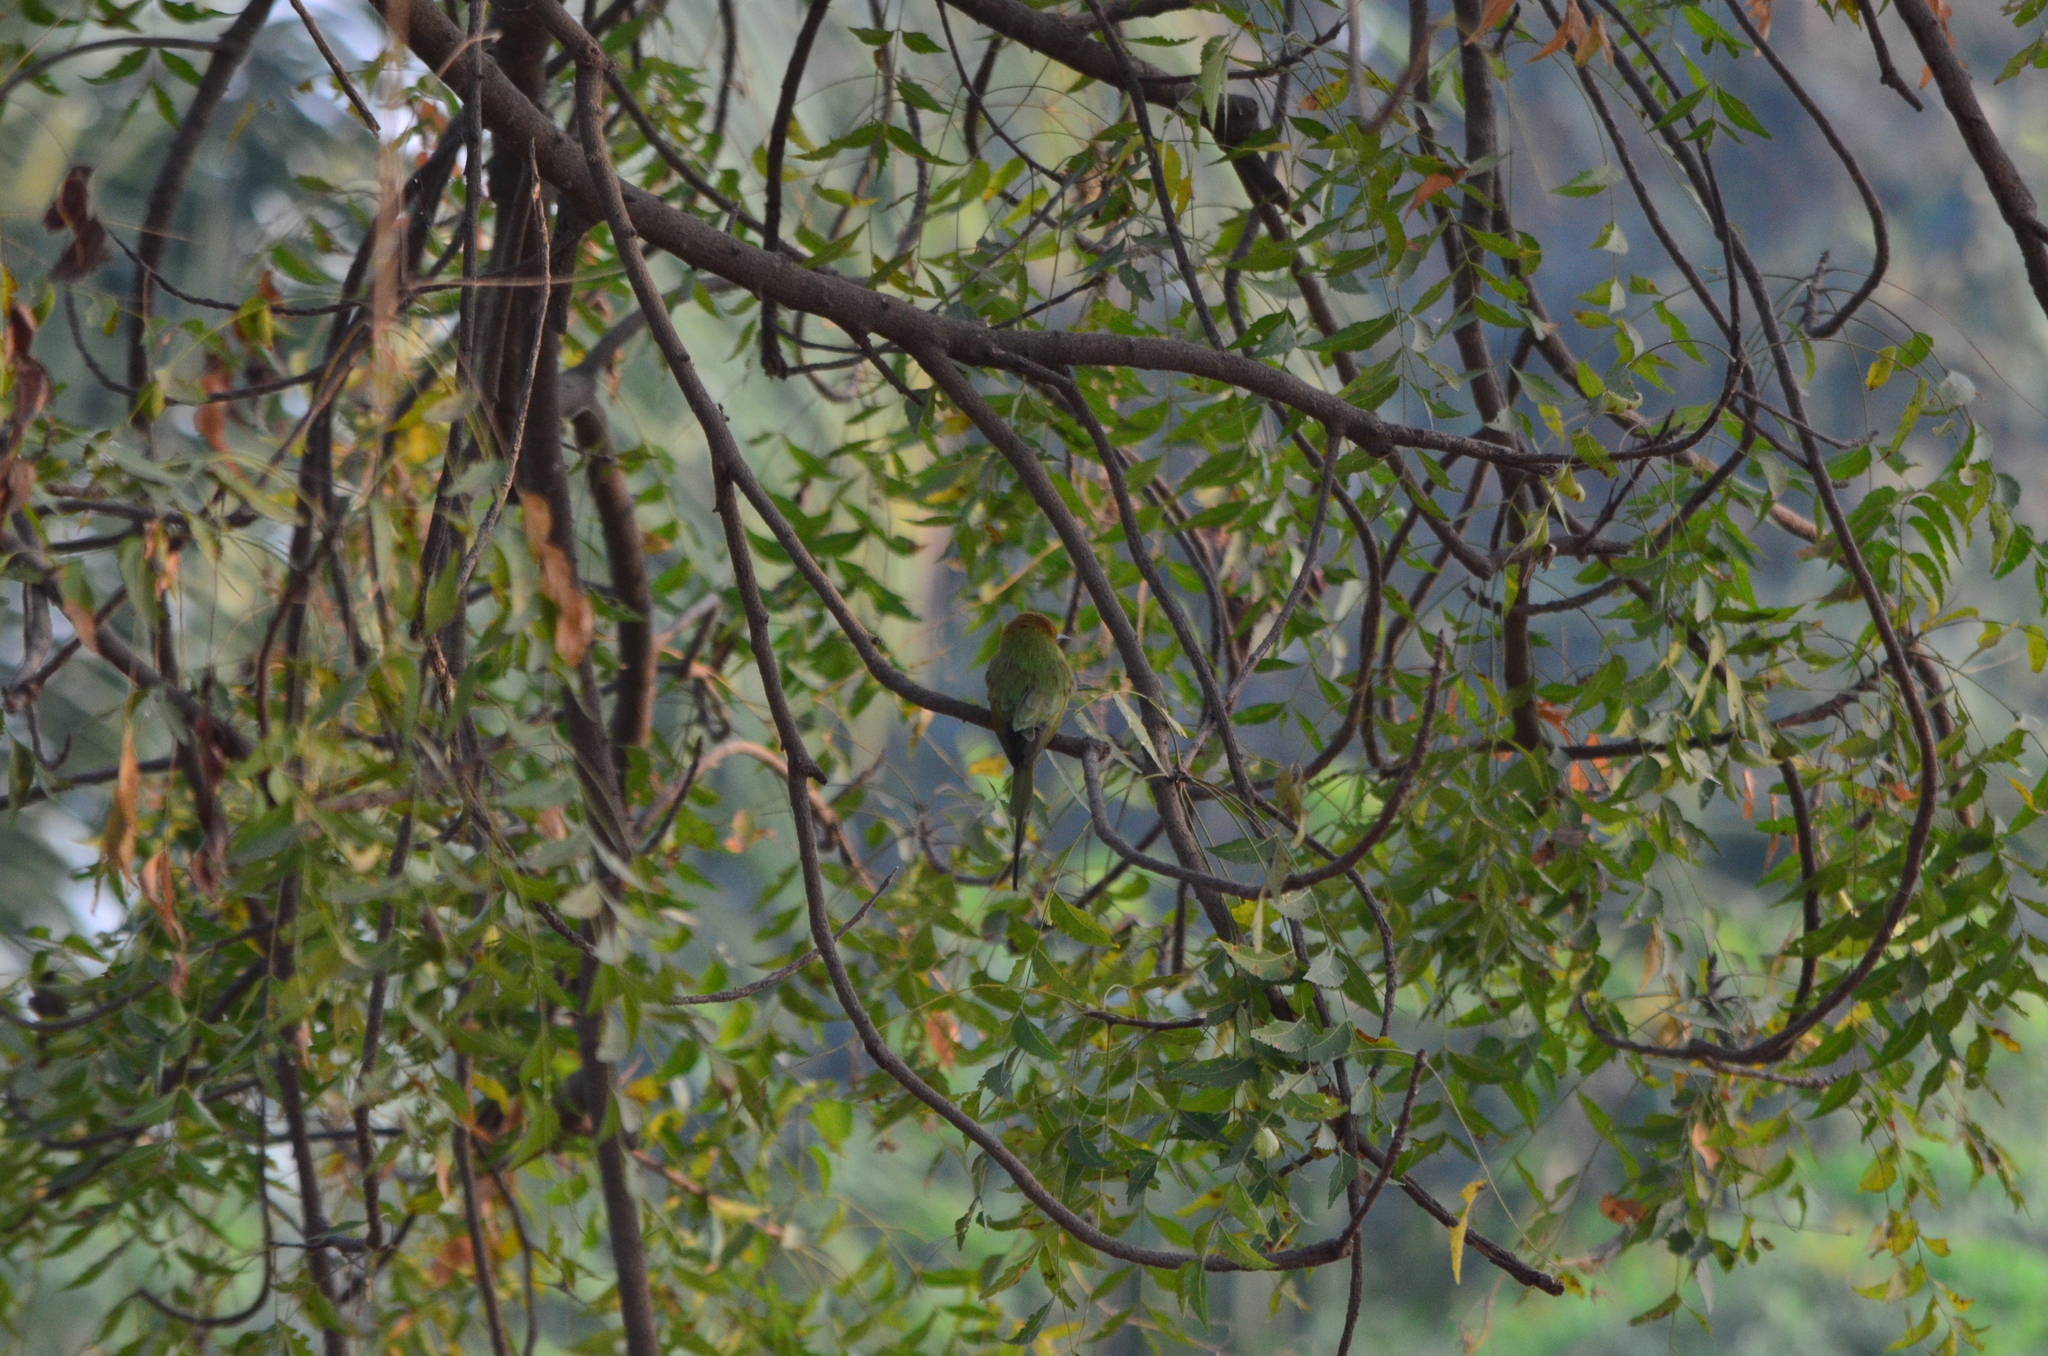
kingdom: Animalia
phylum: Chordata
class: Aves
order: Coraciiformes
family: Meropidae
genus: Merops
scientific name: Merops orientalis
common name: Green bee-eater
